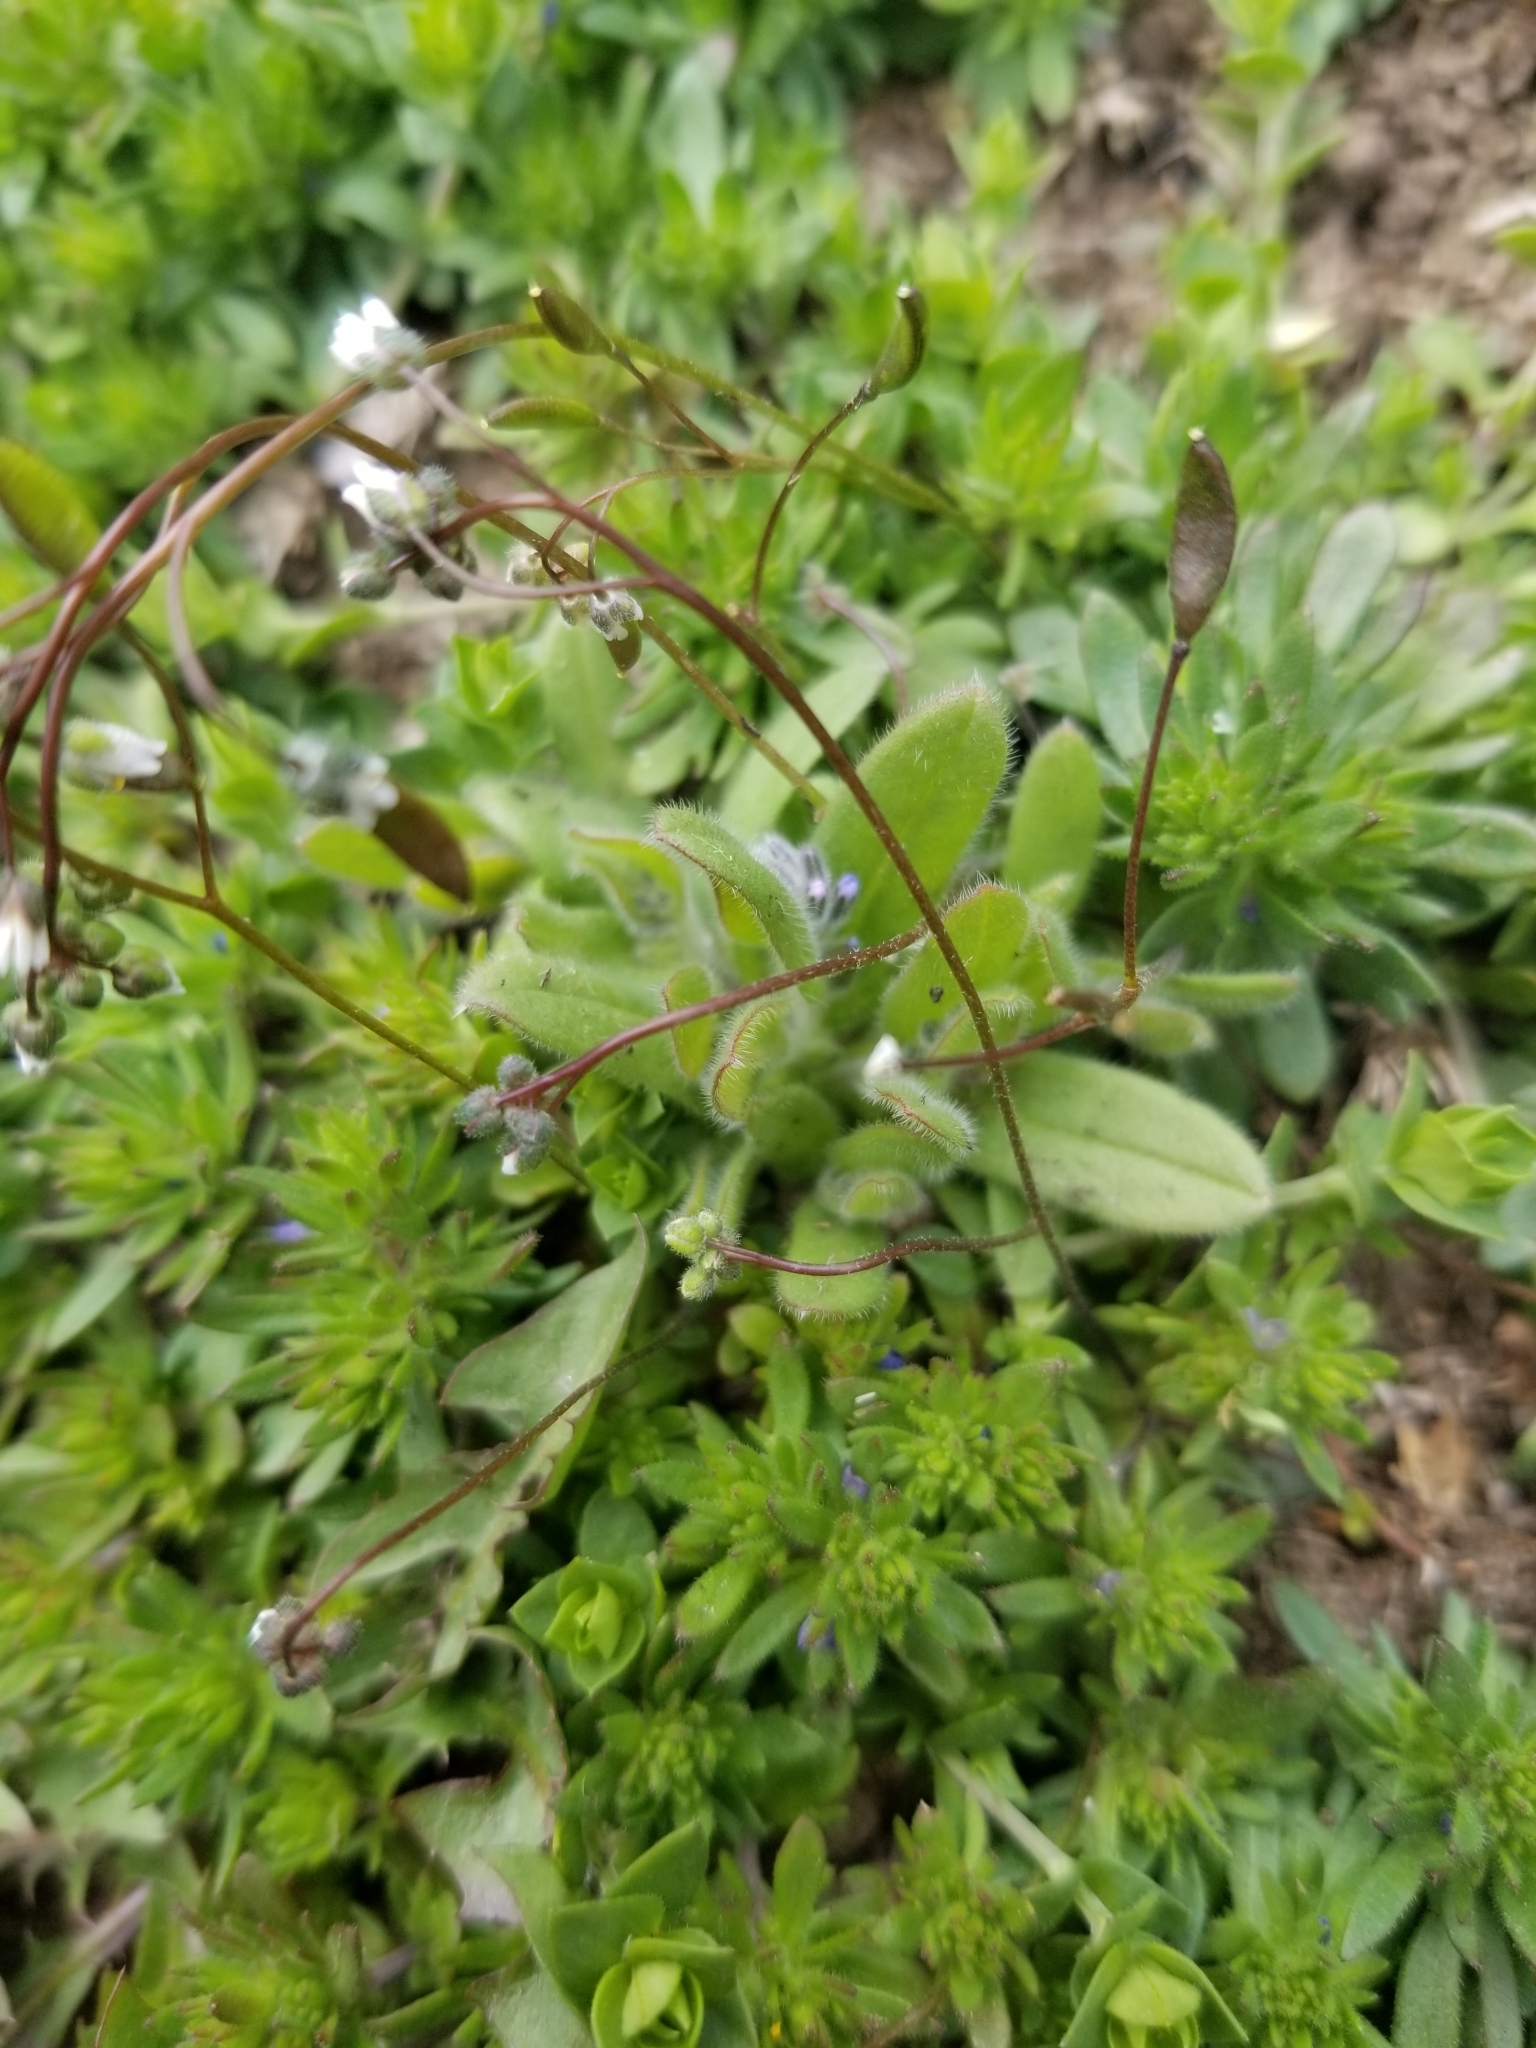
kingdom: Plantae
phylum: Tracheophyta
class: Magnoliopsida
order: Brassicales
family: Brassicaceae
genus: Draba
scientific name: Draba verna
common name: Spring draba
